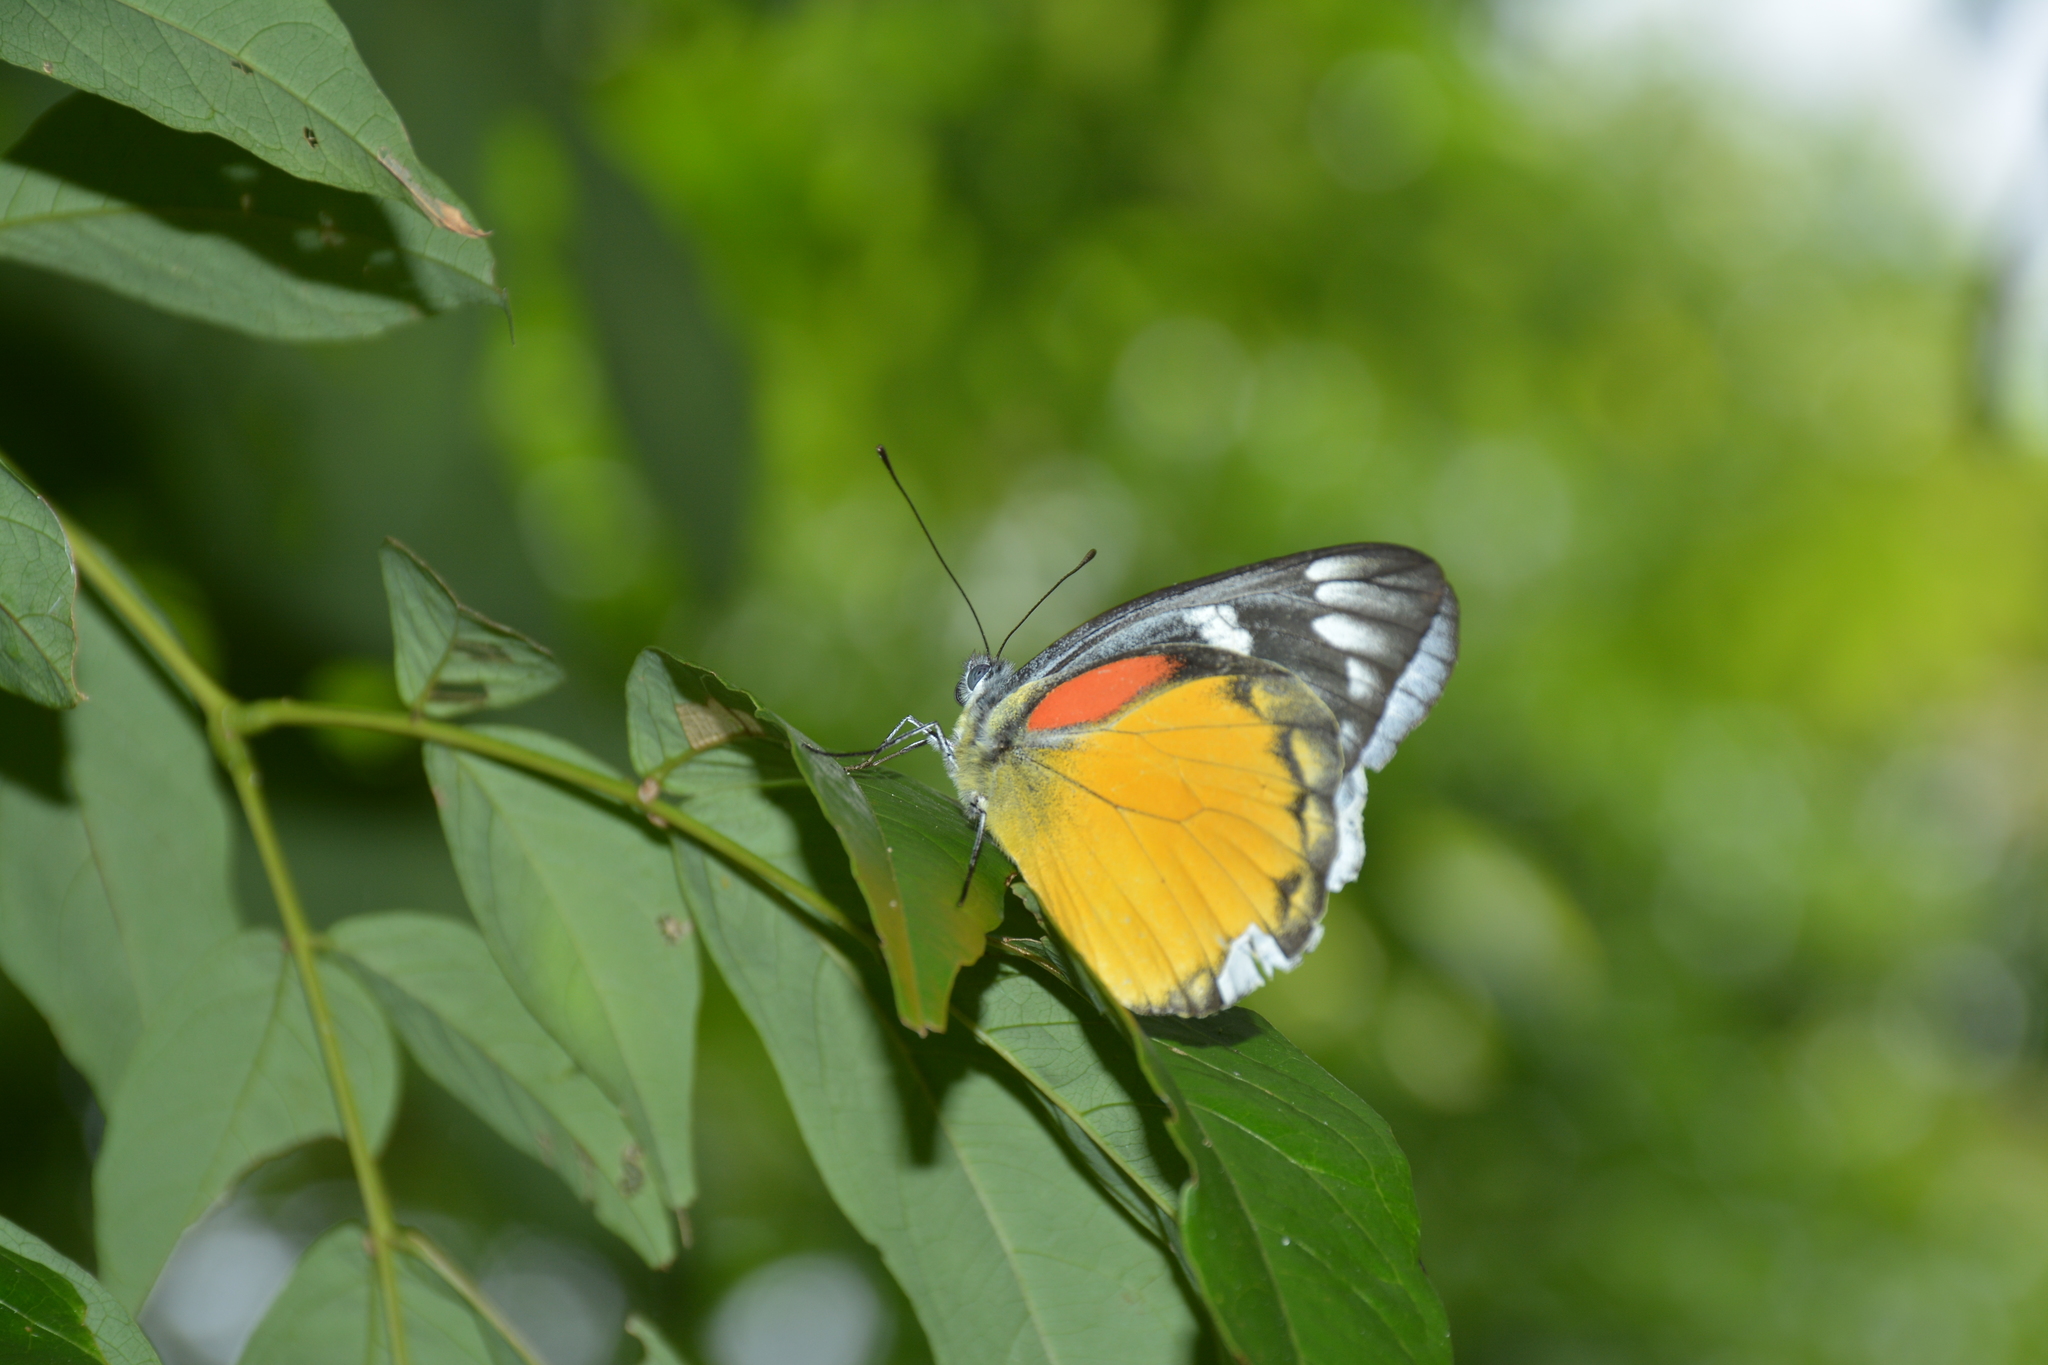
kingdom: Animalia
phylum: Arthropoda
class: Insecta
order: Lepidoptera
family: Pieridae
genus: Delias
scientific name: Delias descombesi
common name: Red-spot jezebel
